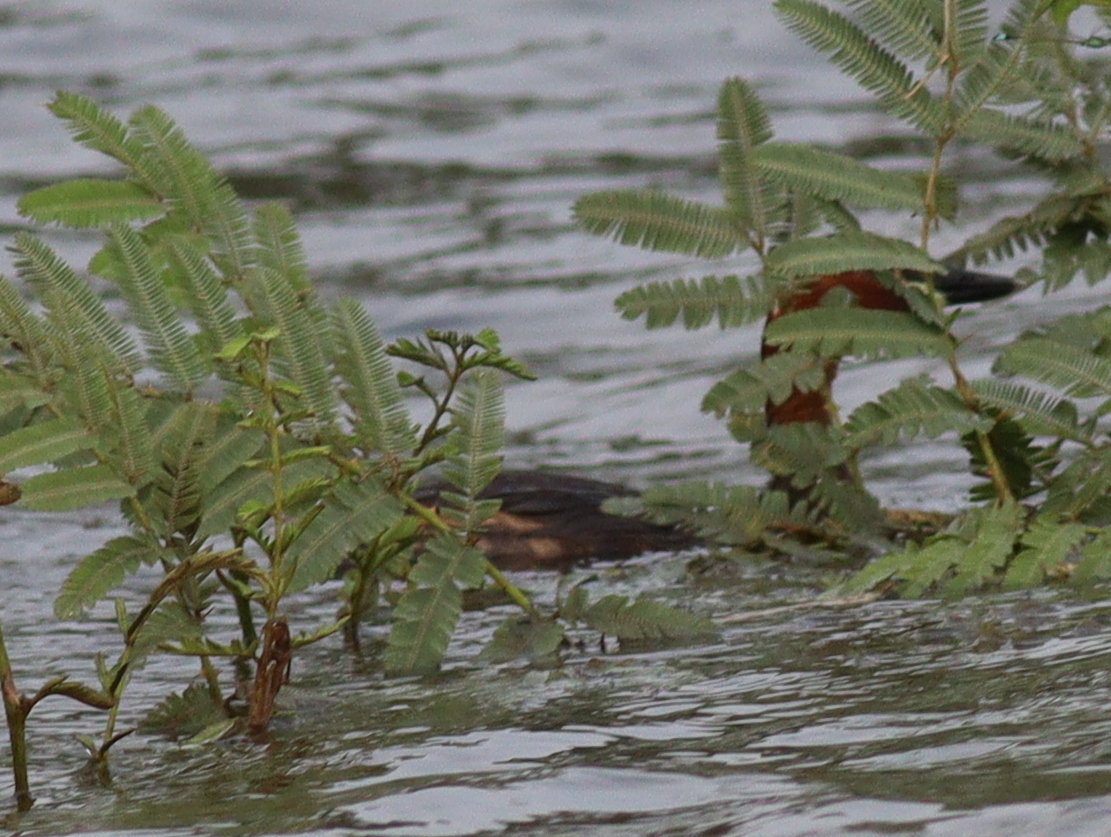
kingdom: Animalia
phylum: Chordata
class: Aves
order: Podicipediformes
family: Podicipedidae
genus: Tachybaptus
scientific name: Tachybaptus ruficollis
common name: Little grebe
